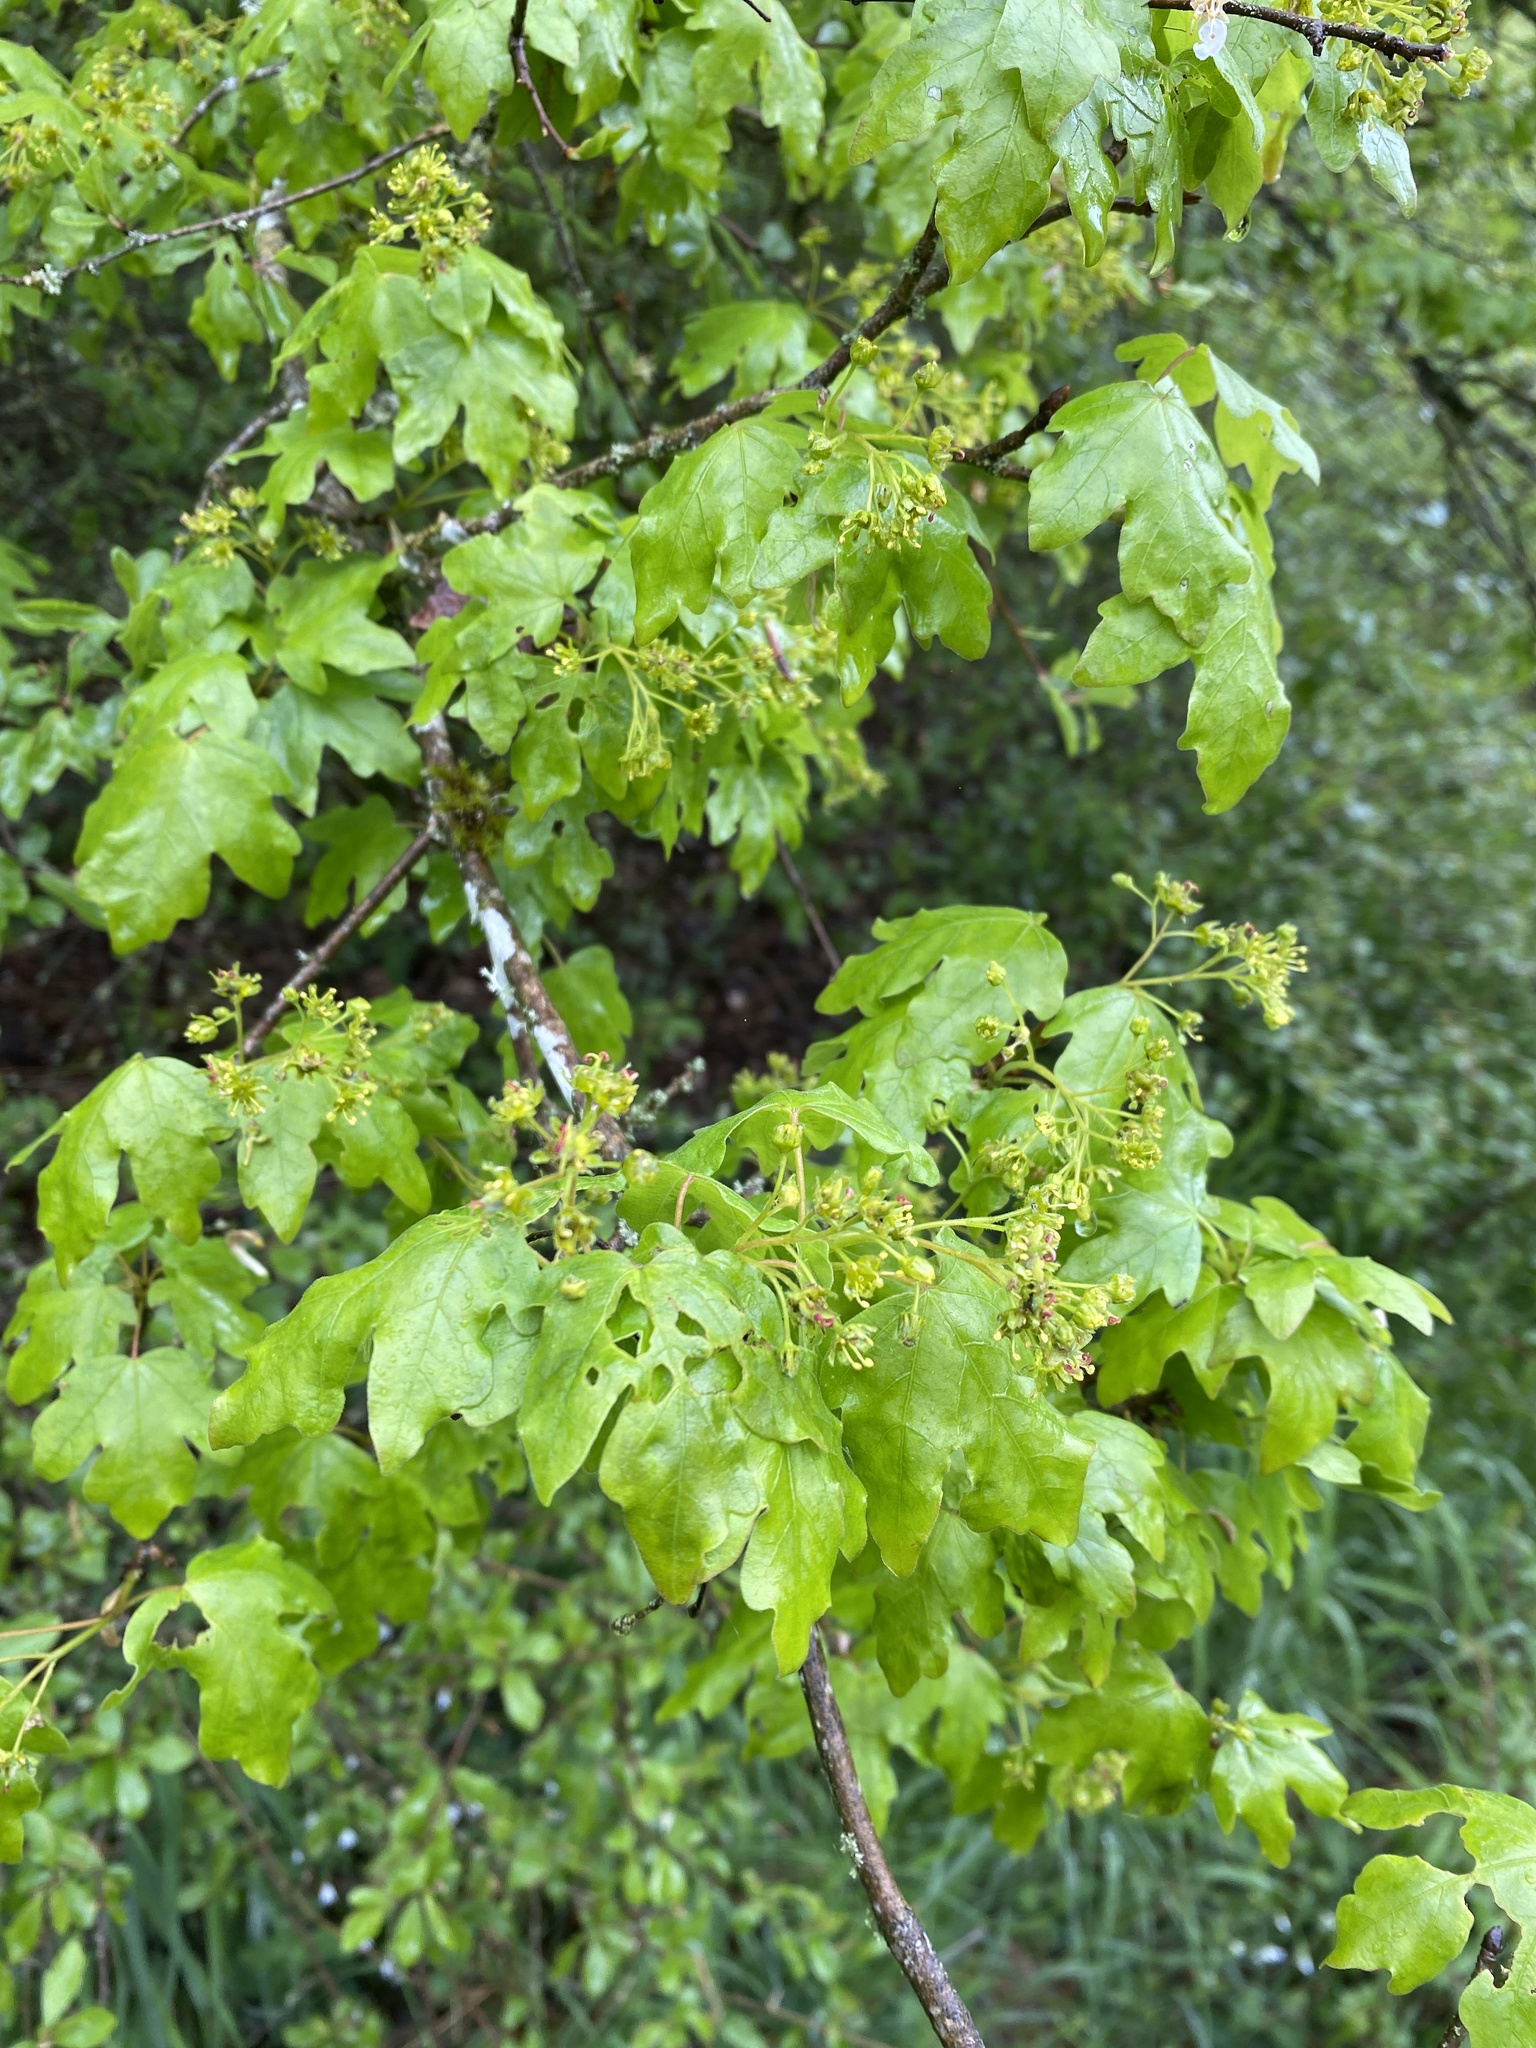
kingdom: Plantae
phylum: Tracheophyta
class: Magnoliopsida
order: Sapindales
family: Sapindaceae
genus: Acer
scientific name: Acer campestre
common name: Field maple
